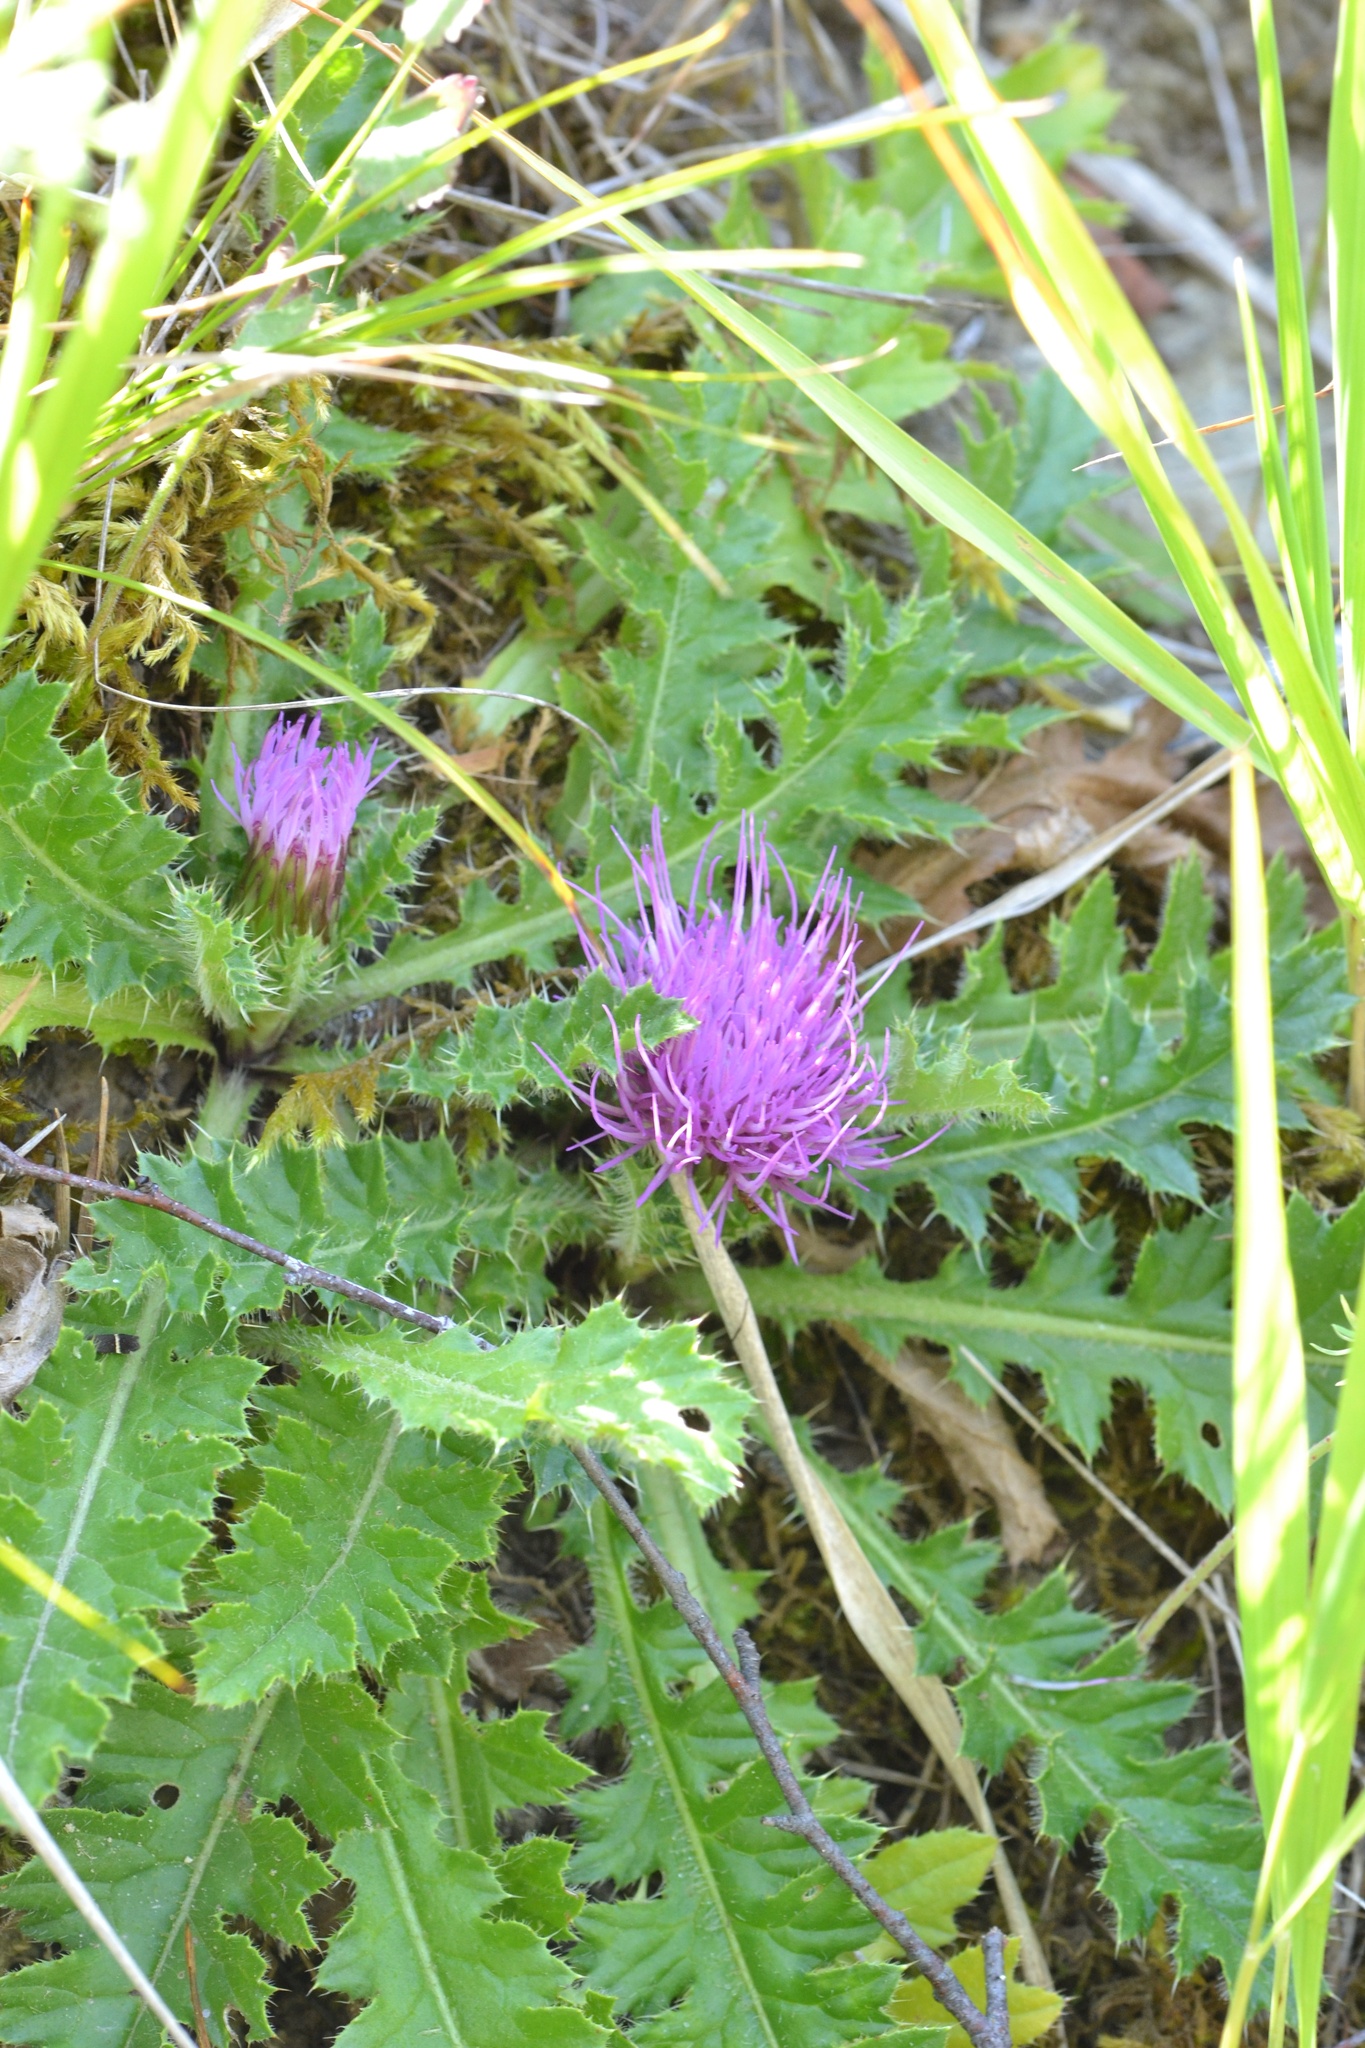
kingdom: Plantae
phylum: Tracheophyta
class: Magnoliopsida
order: Asterales
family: Asteraceae
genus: Cirsium
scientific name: Cirsium acaulon
